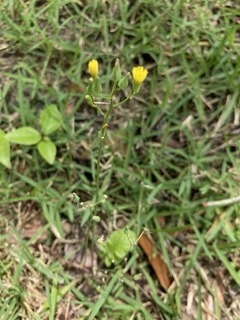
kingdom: Plantae
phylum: Tracheophyta
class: Magnoliopsida
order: Asterales
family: Asteraceae
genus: Youngia
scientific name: Youngia japonica
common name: Oriental false hawksbeard
